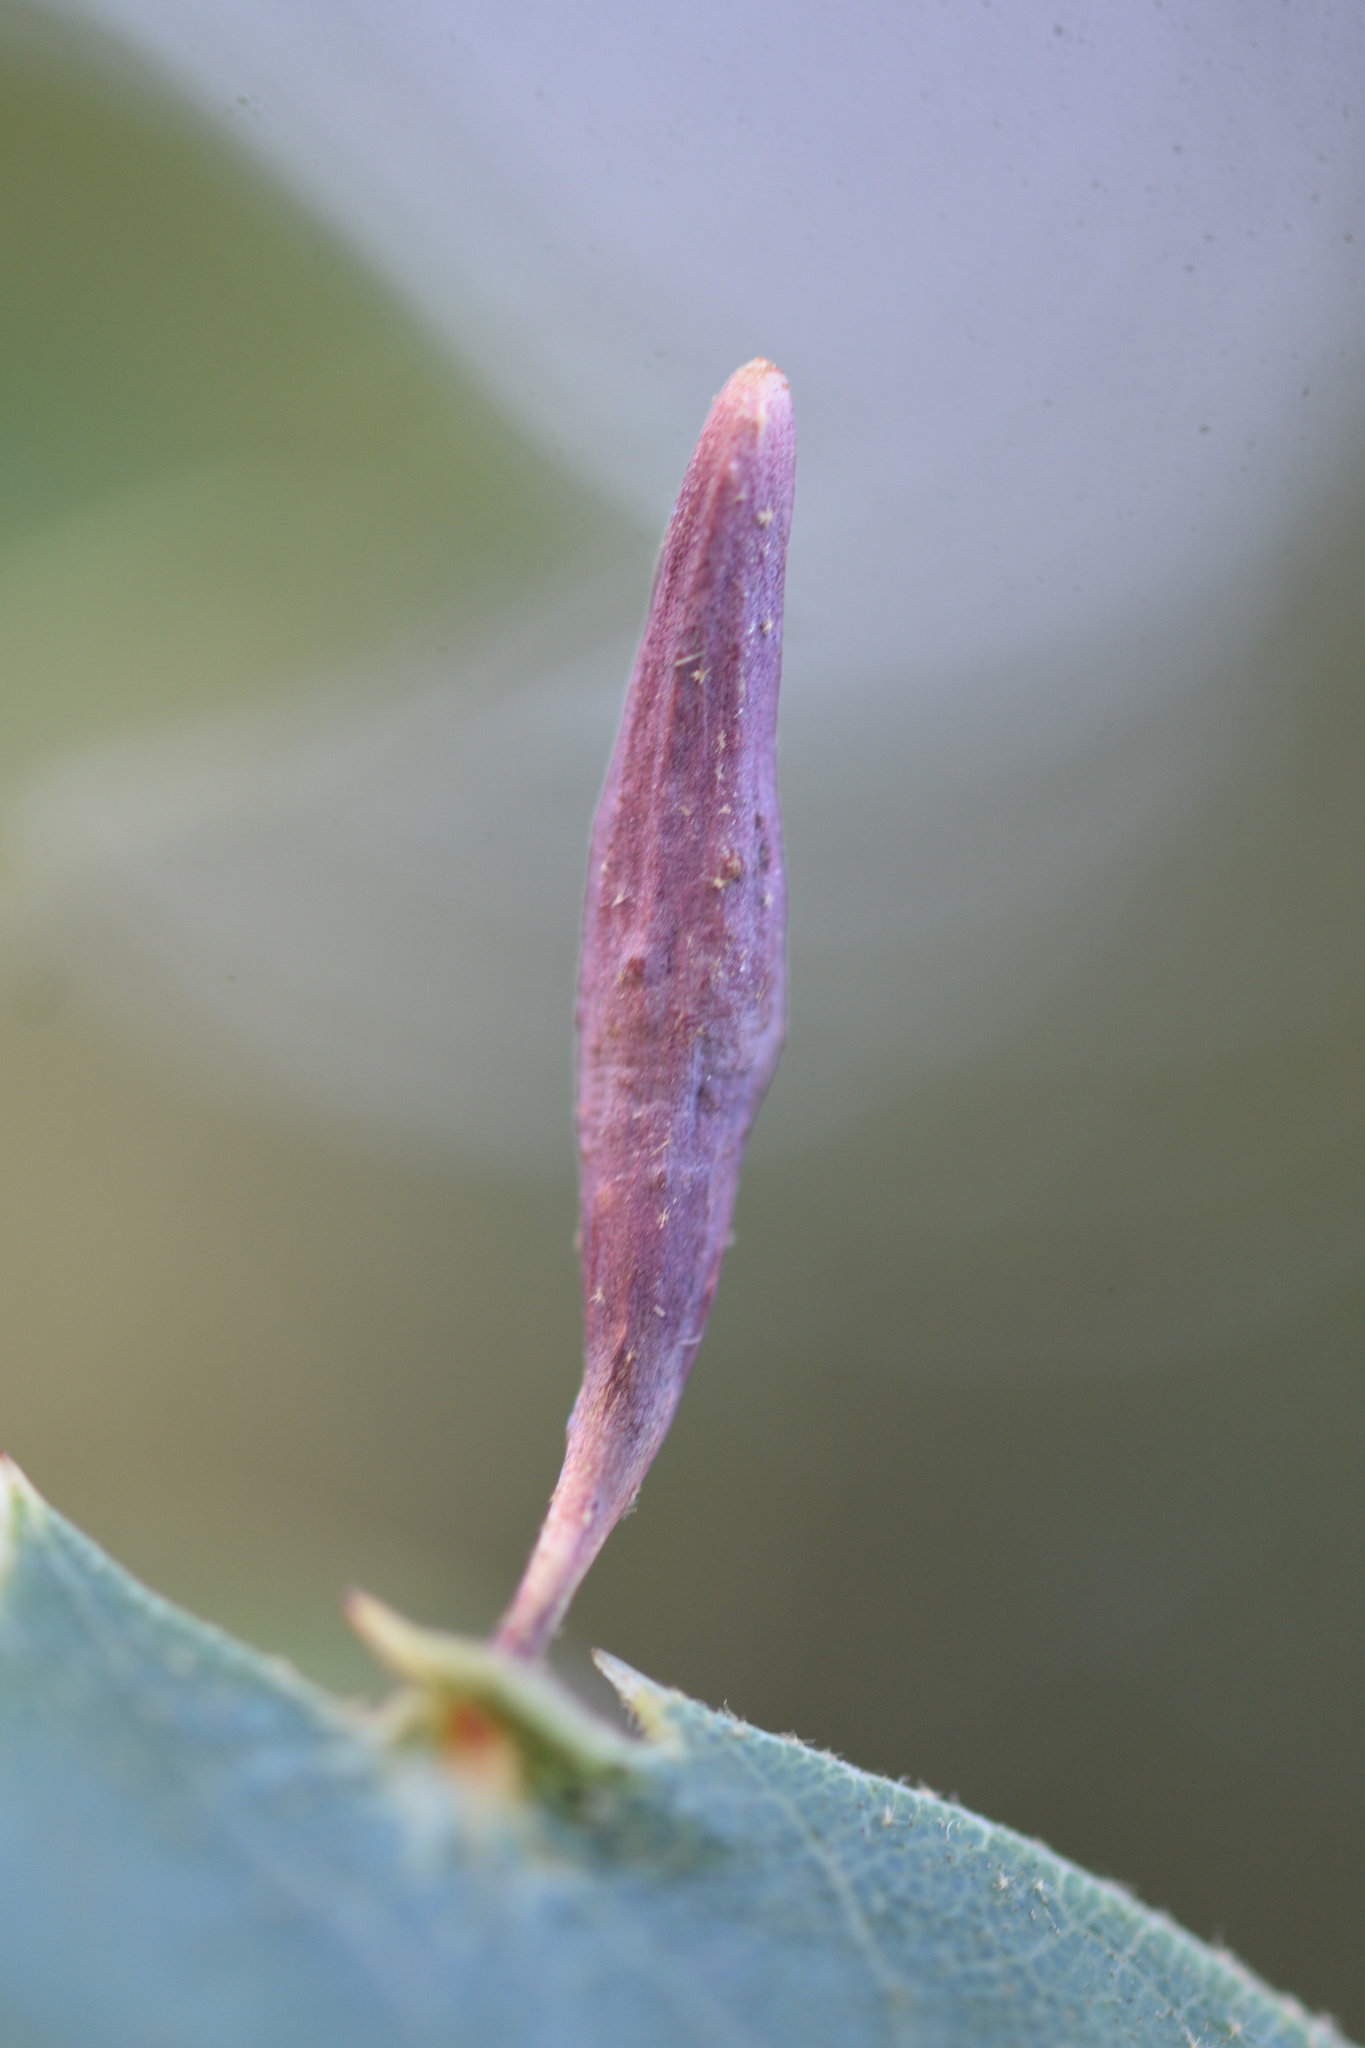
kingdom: Animalia
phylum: Arthropoda
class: Insecta
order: Hymenoptera
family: Cynipidae
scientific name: Cynipidae
